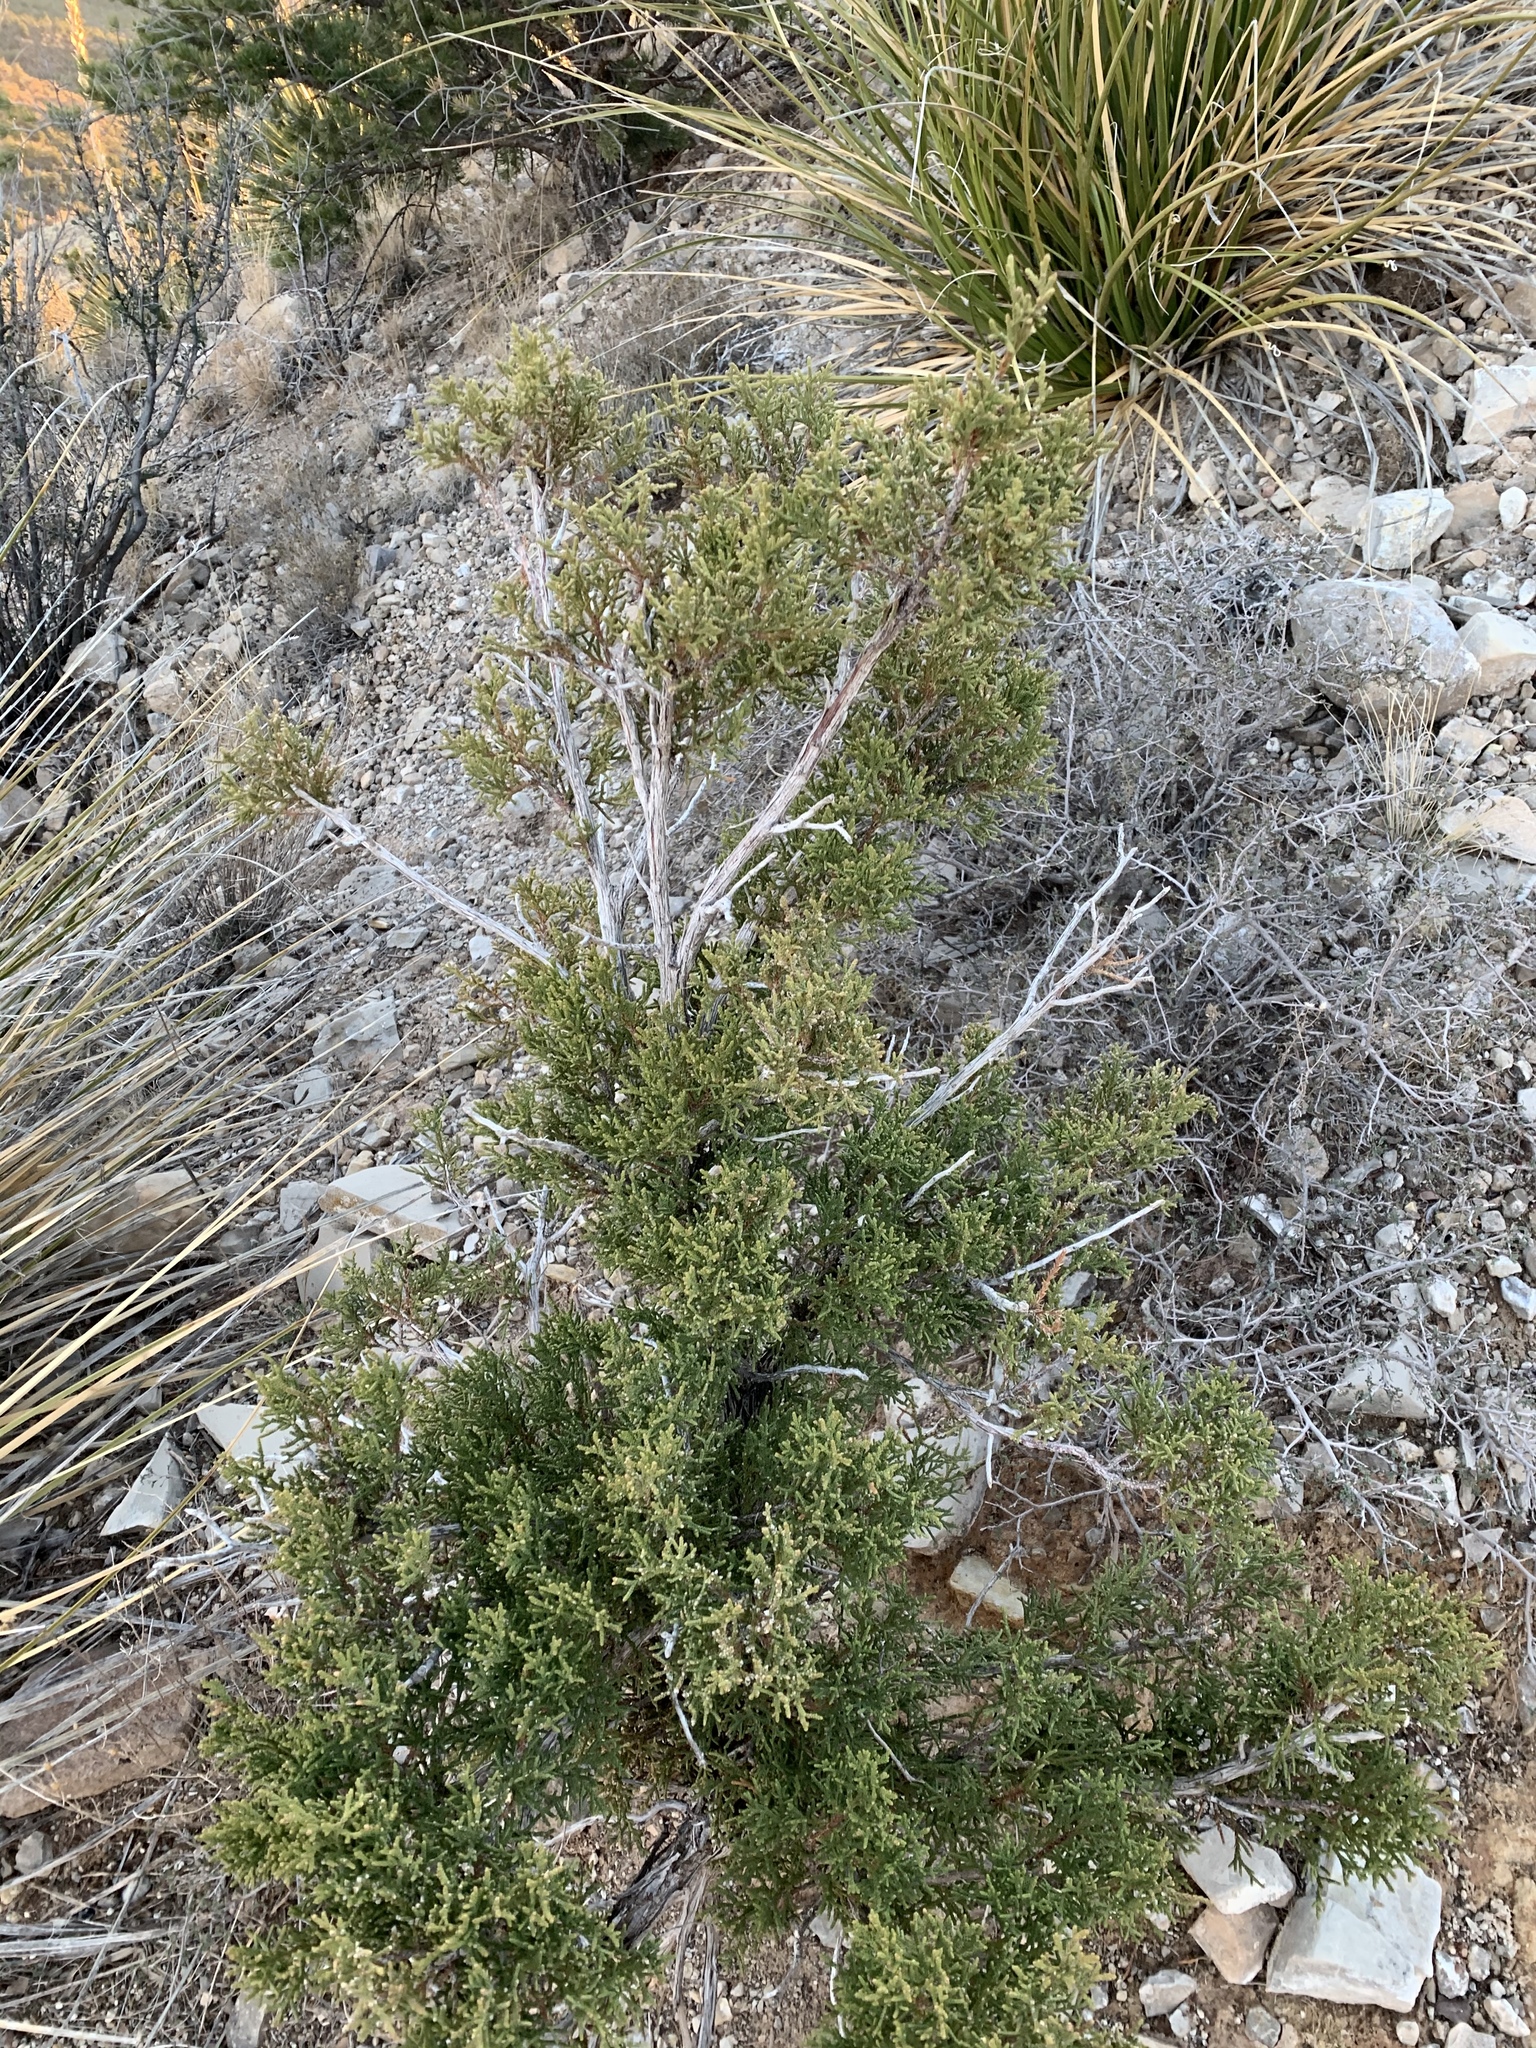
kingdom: Plantae
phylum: Tracheophyta
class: Pinopsida
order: Pinales
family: Cupressaceae
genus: Juniperus
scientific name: Juniperus monosperma
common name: One-seed juniper
